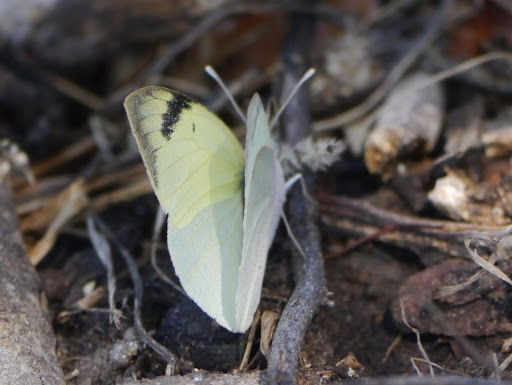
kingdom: Animalia
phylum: Arthropoda
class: Insecta
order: Lepidoptera
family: Pieridae
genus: Colotis
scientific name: Colotis subfasciatus
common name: Lemon traveller tip
